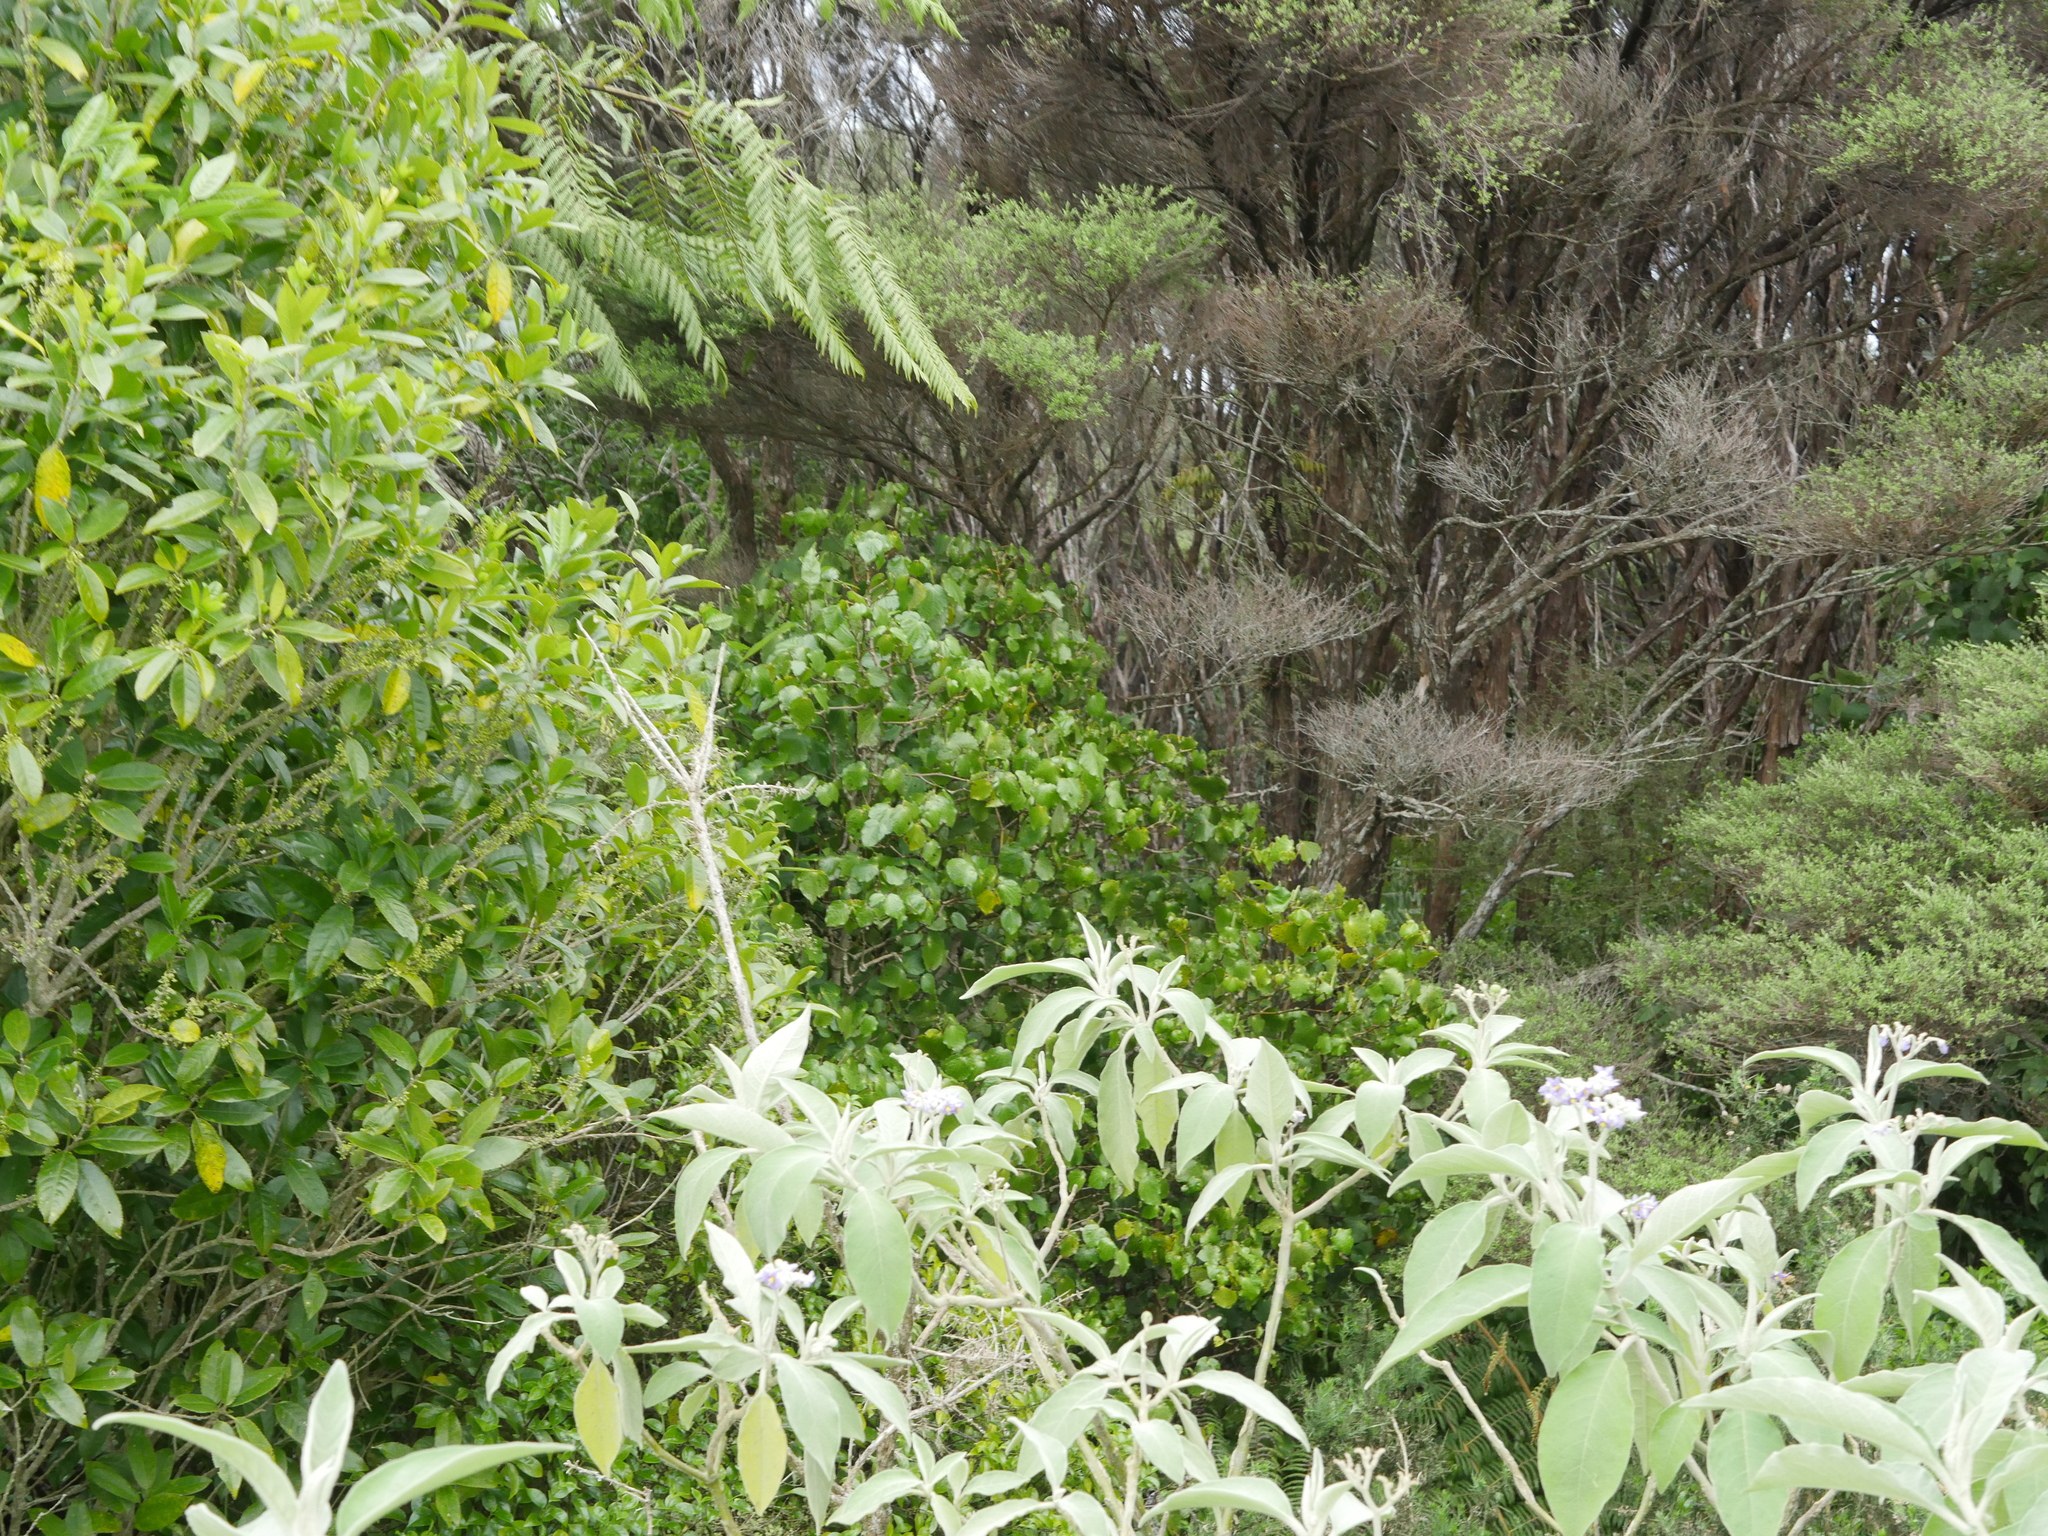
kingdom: Plantae
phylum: Tracheophyta
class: Magnoliopsida
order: Piperales
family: Piperaceae
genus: Macropiper
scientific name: Macropiper excelsum
